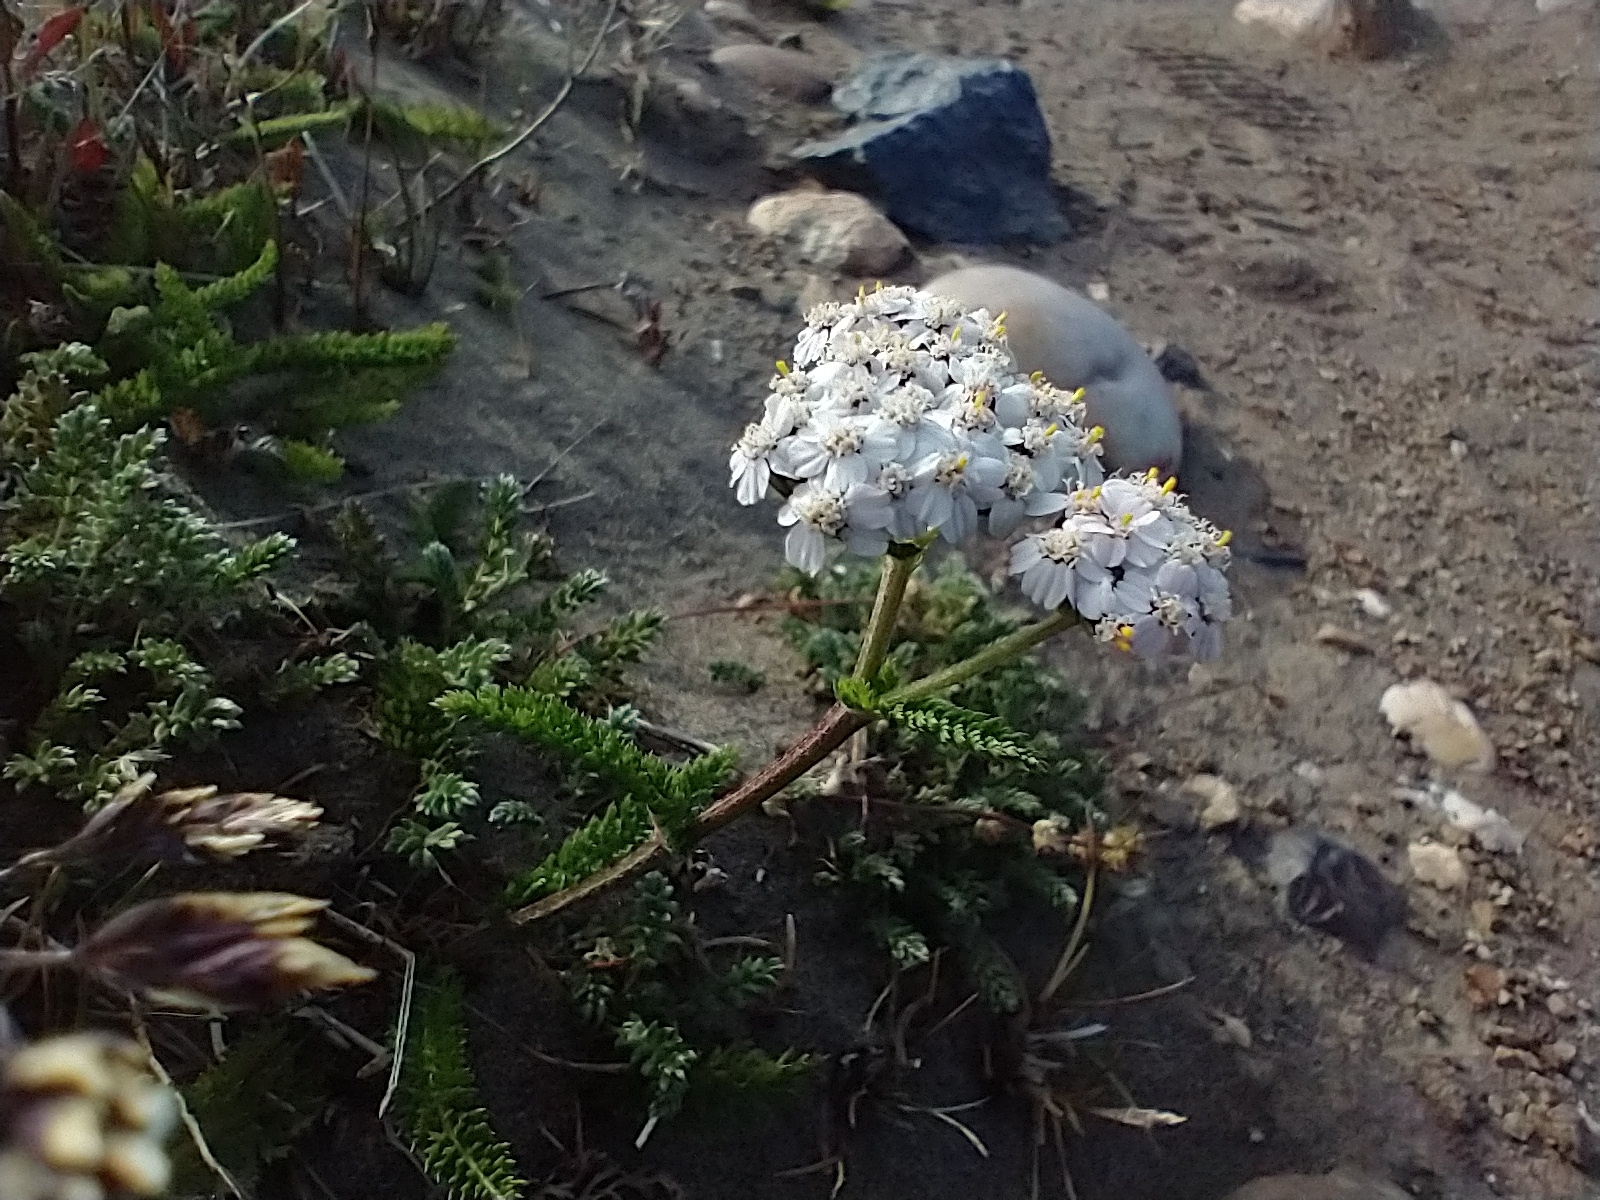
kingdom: Plantae
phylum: Tracheophyta
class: Magnoliopsida
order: Asterales
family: Asteraceae
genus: Achillea
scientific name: Achillea millefolium
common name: Yarrow
